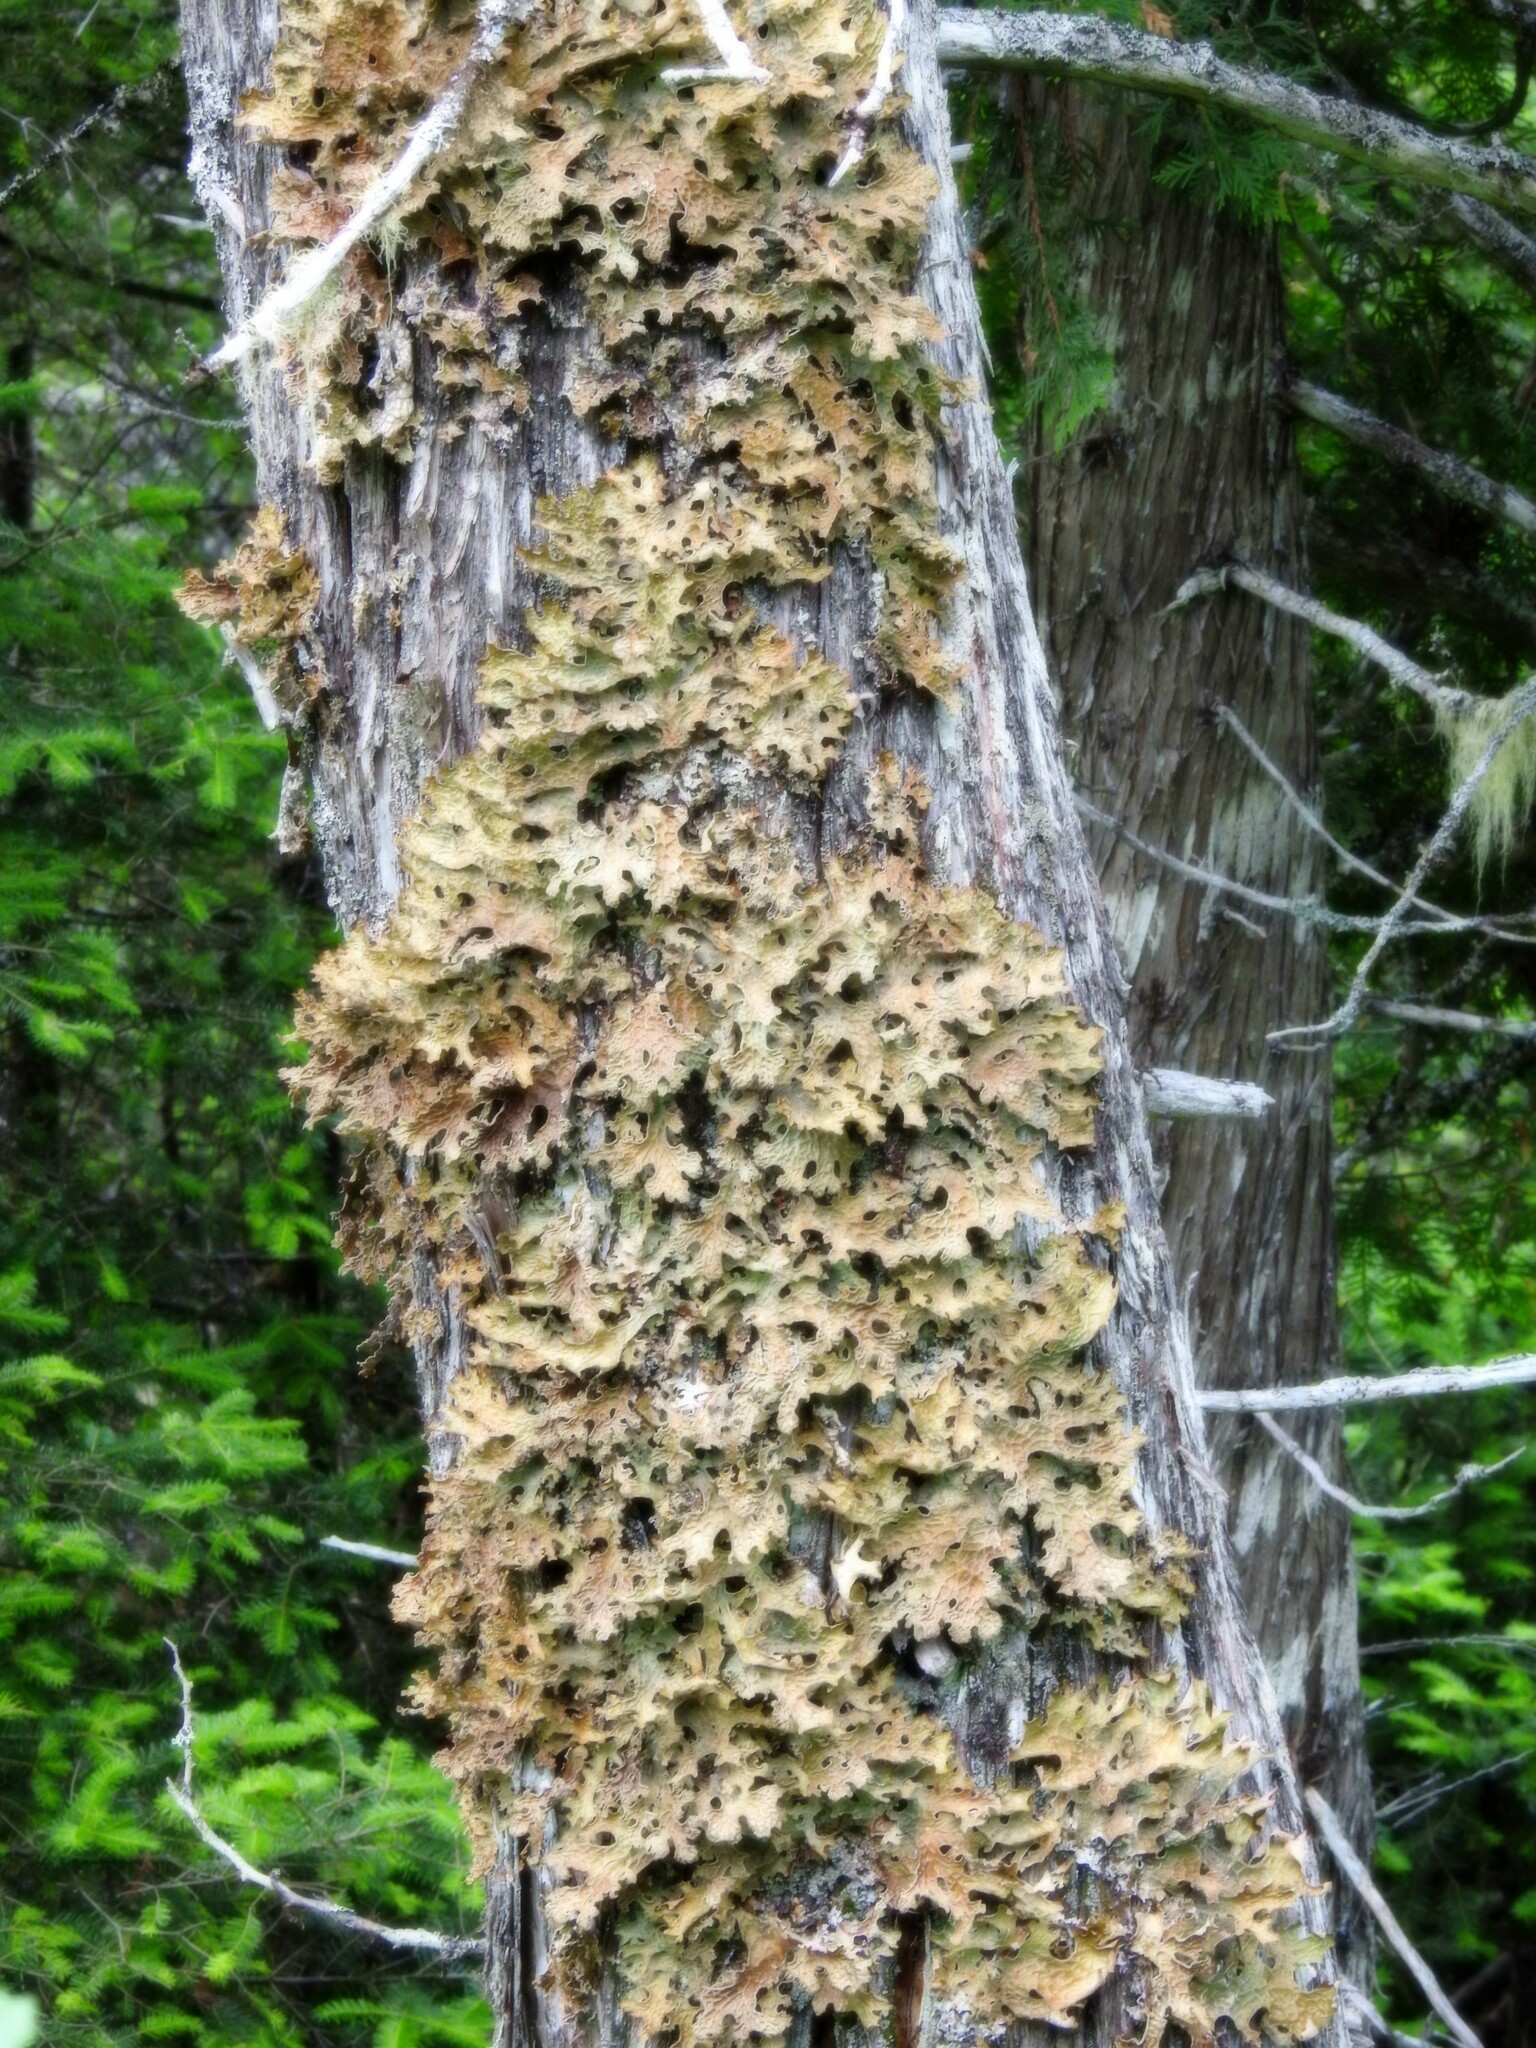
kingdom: Fungi
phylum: Ascomycota
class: Lecanoromycetes
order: Peltigerales
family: Lobariaceae
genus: Lobaria
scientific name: Lobaria pulmonaria
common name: Lungwort
